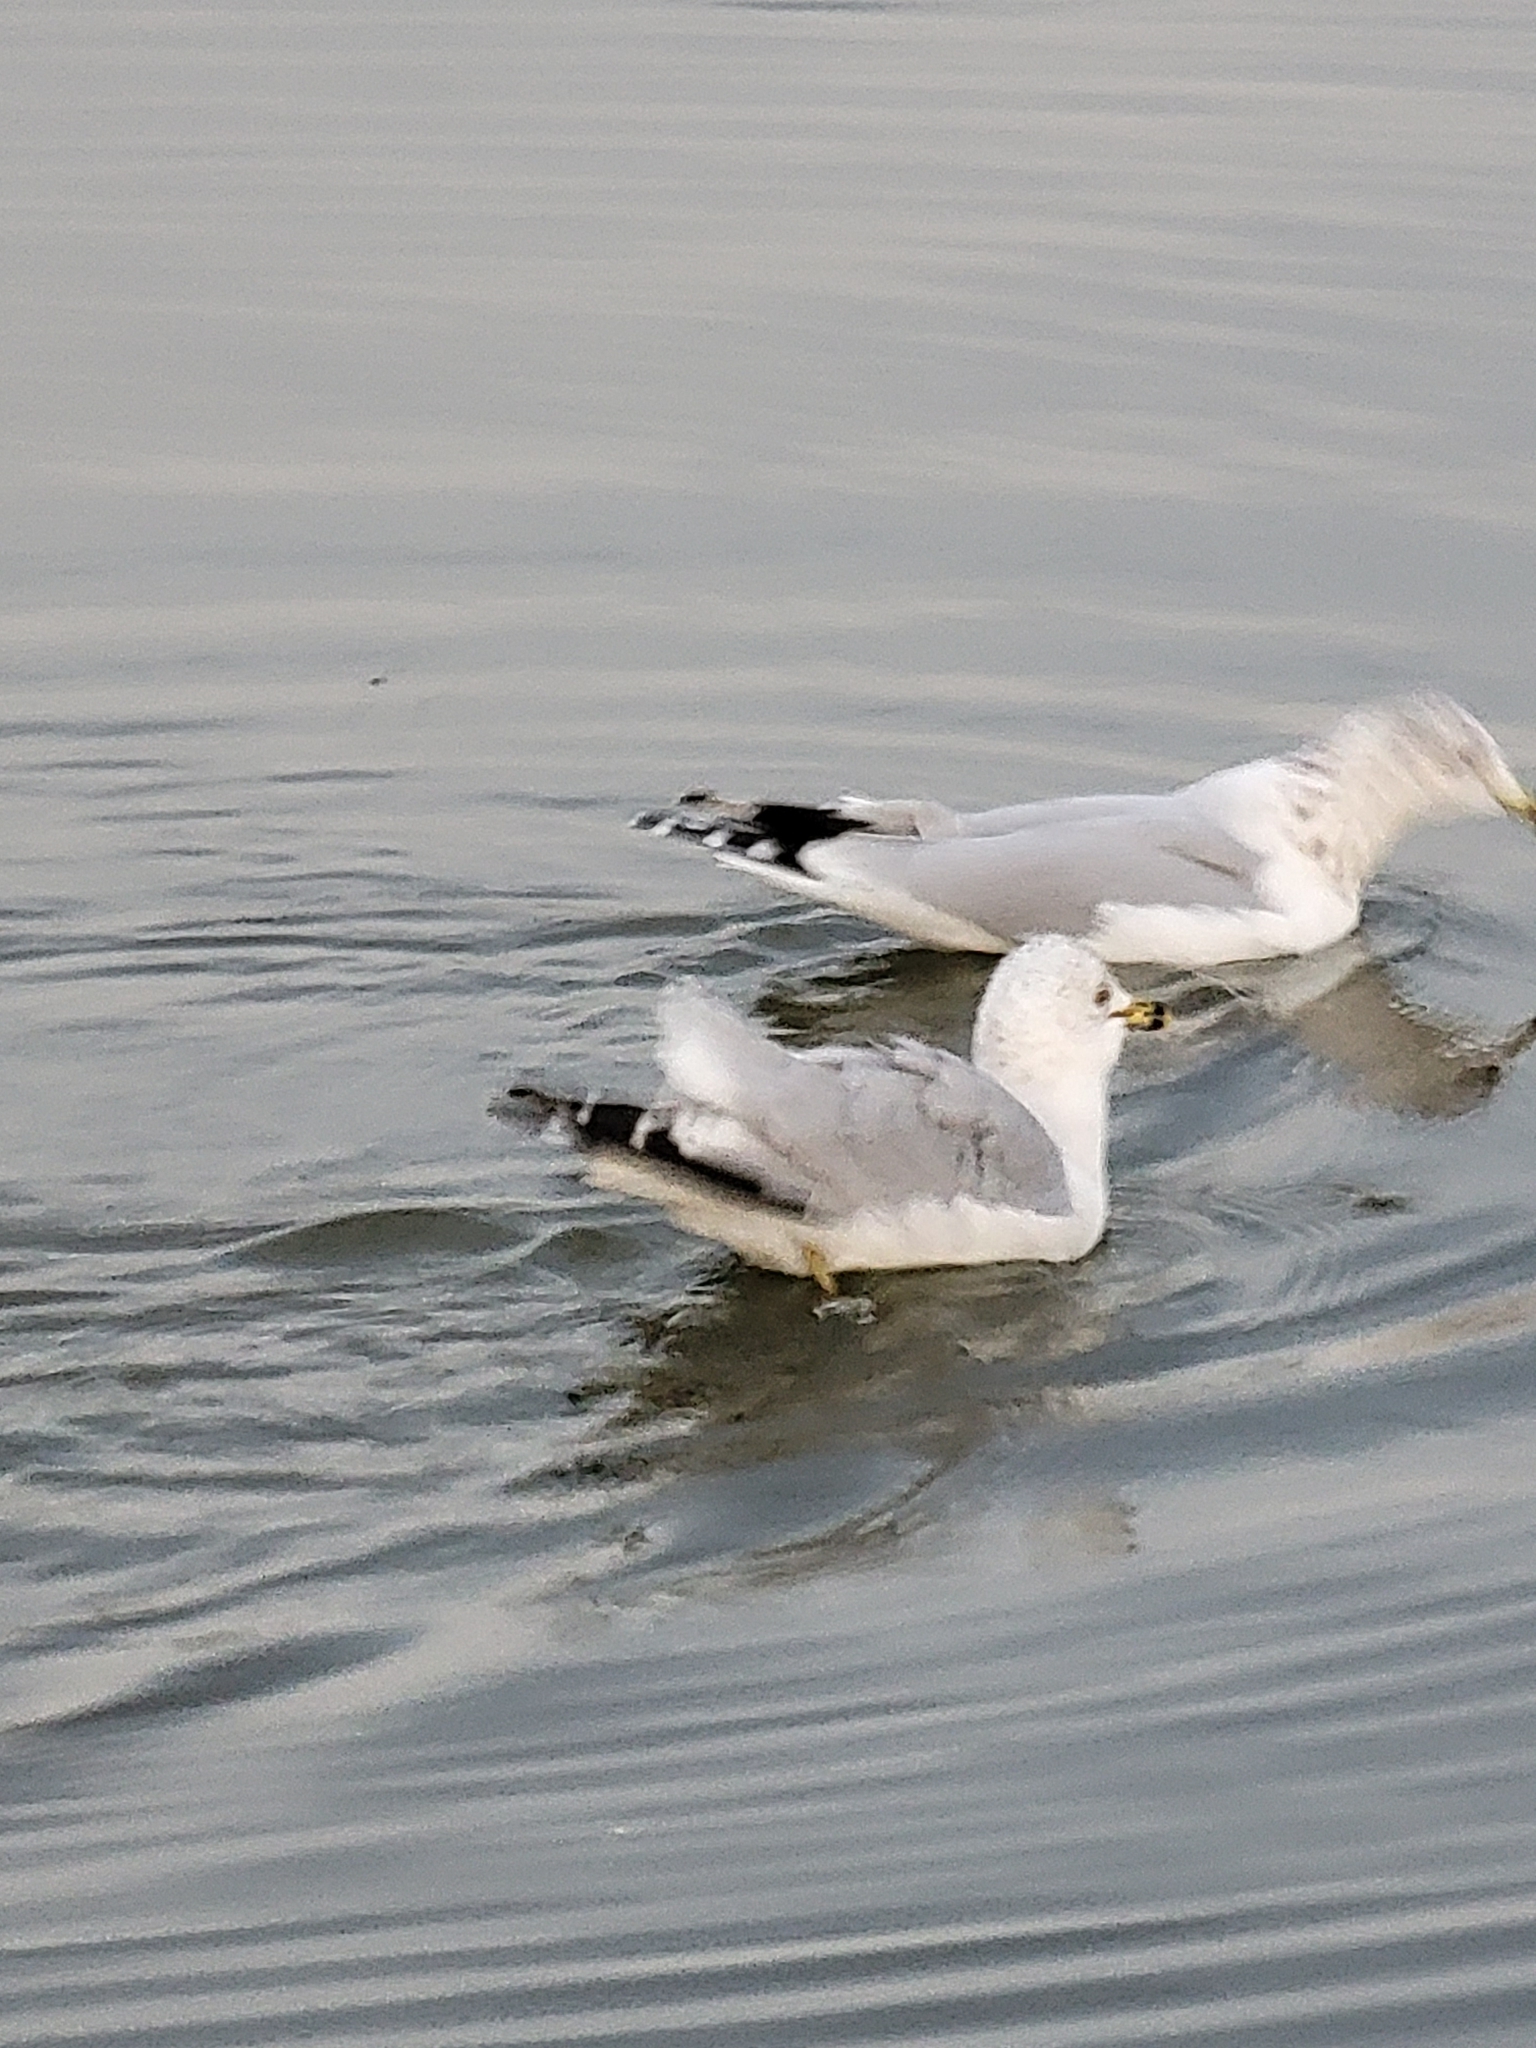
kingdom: Animalia
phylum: Chordata
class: Aves
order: Charadriiformes
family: Laridae
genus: Larus
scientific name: Larus delawarensis
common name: Ring-billed gull
